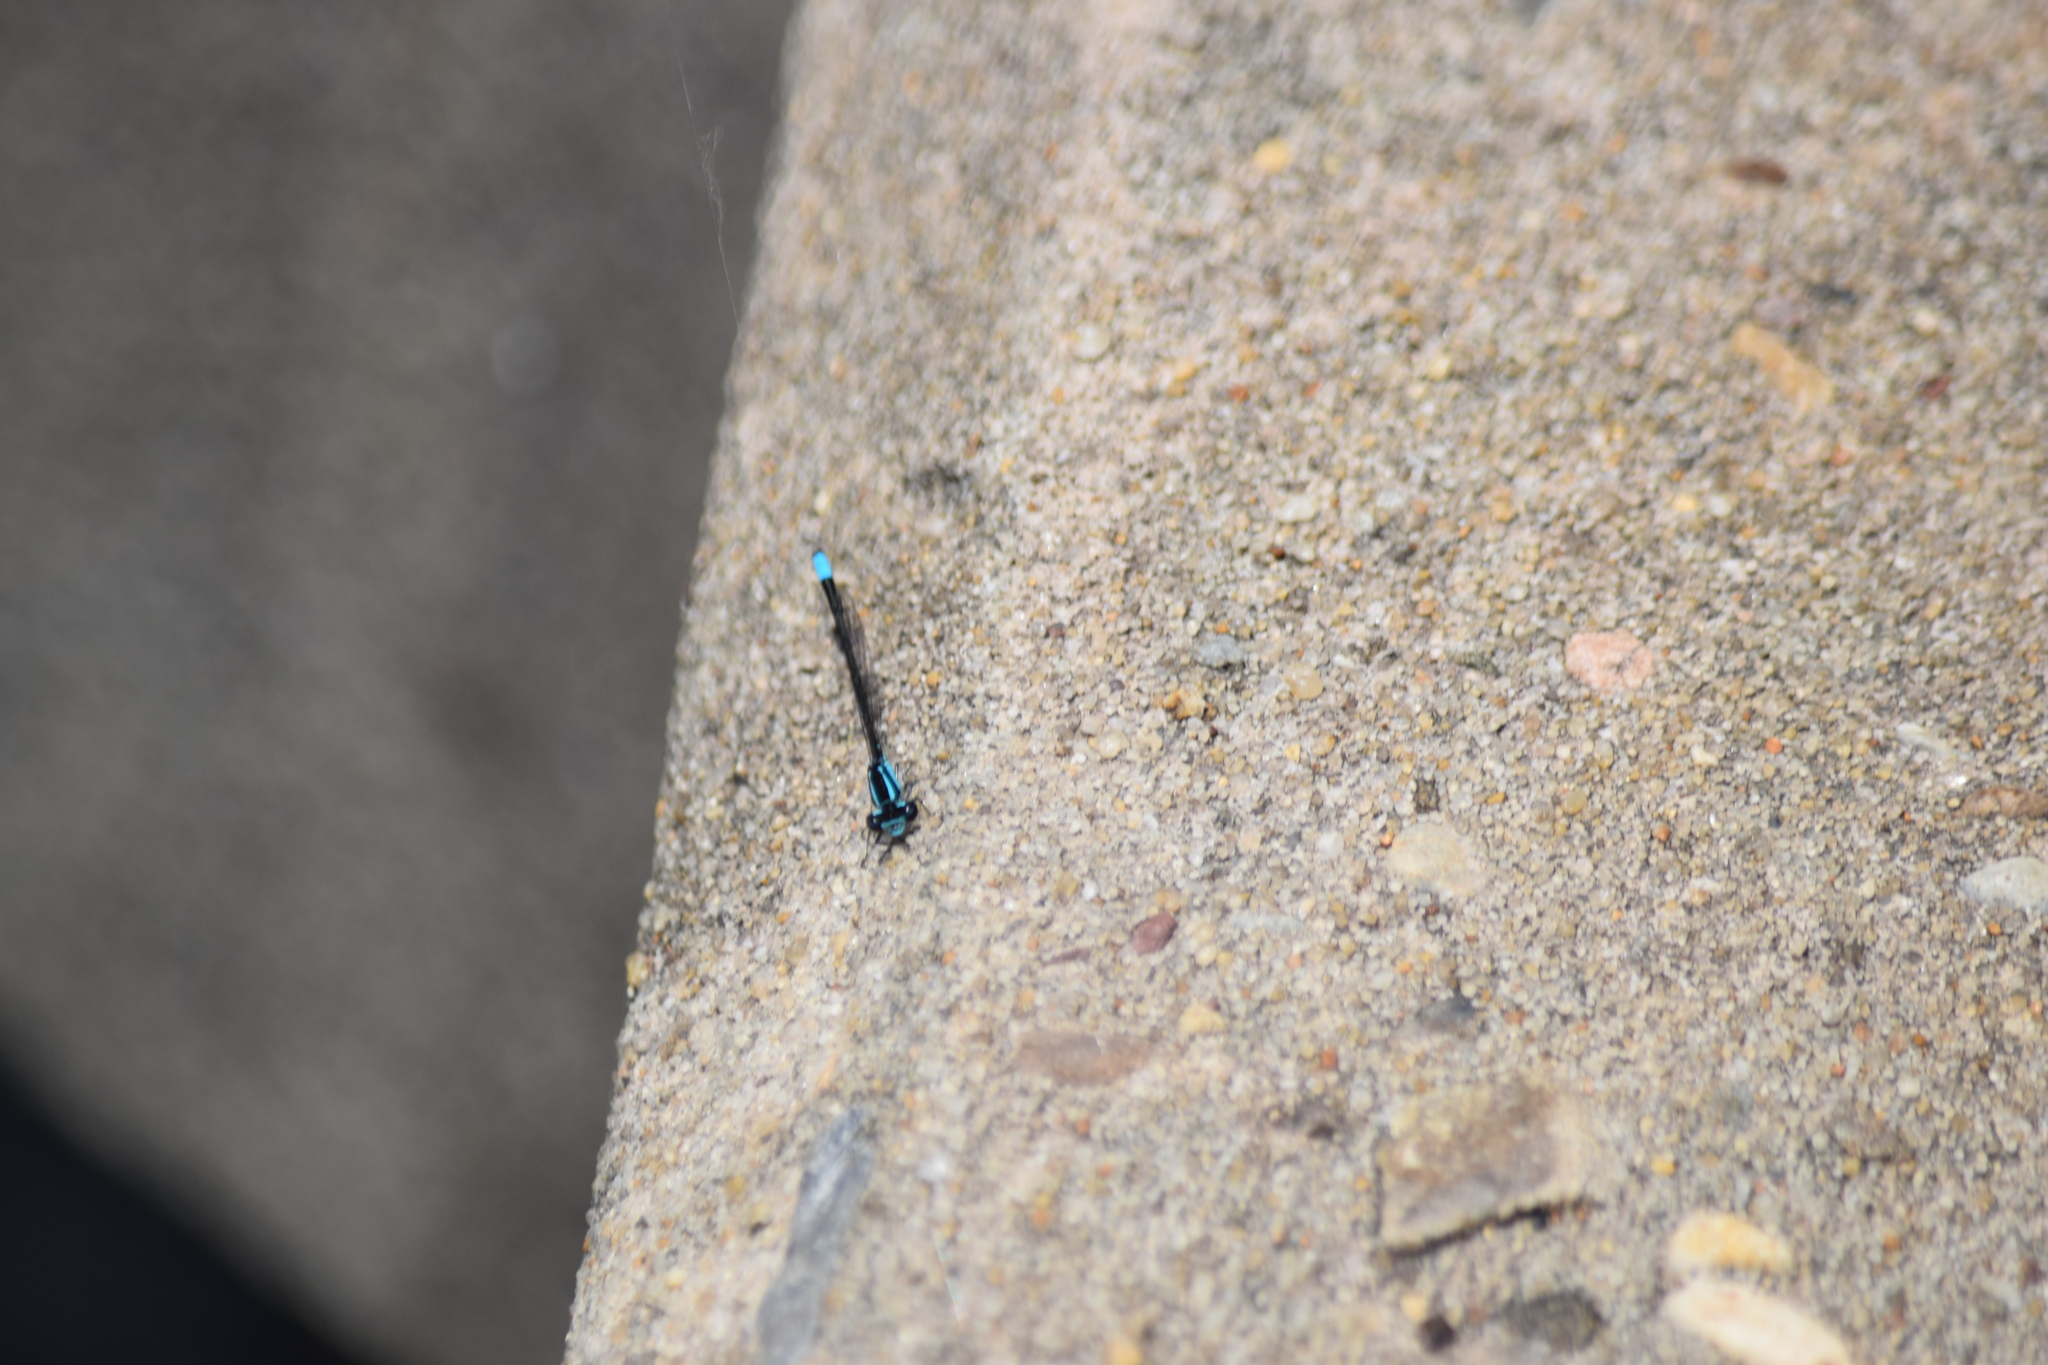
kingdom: Animalia
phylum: Arthropoda
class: Insecta
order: Odonata
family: Coenagrionidae
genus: Enallagma
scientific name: Enallagma geminatum
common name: Skimming bluet
